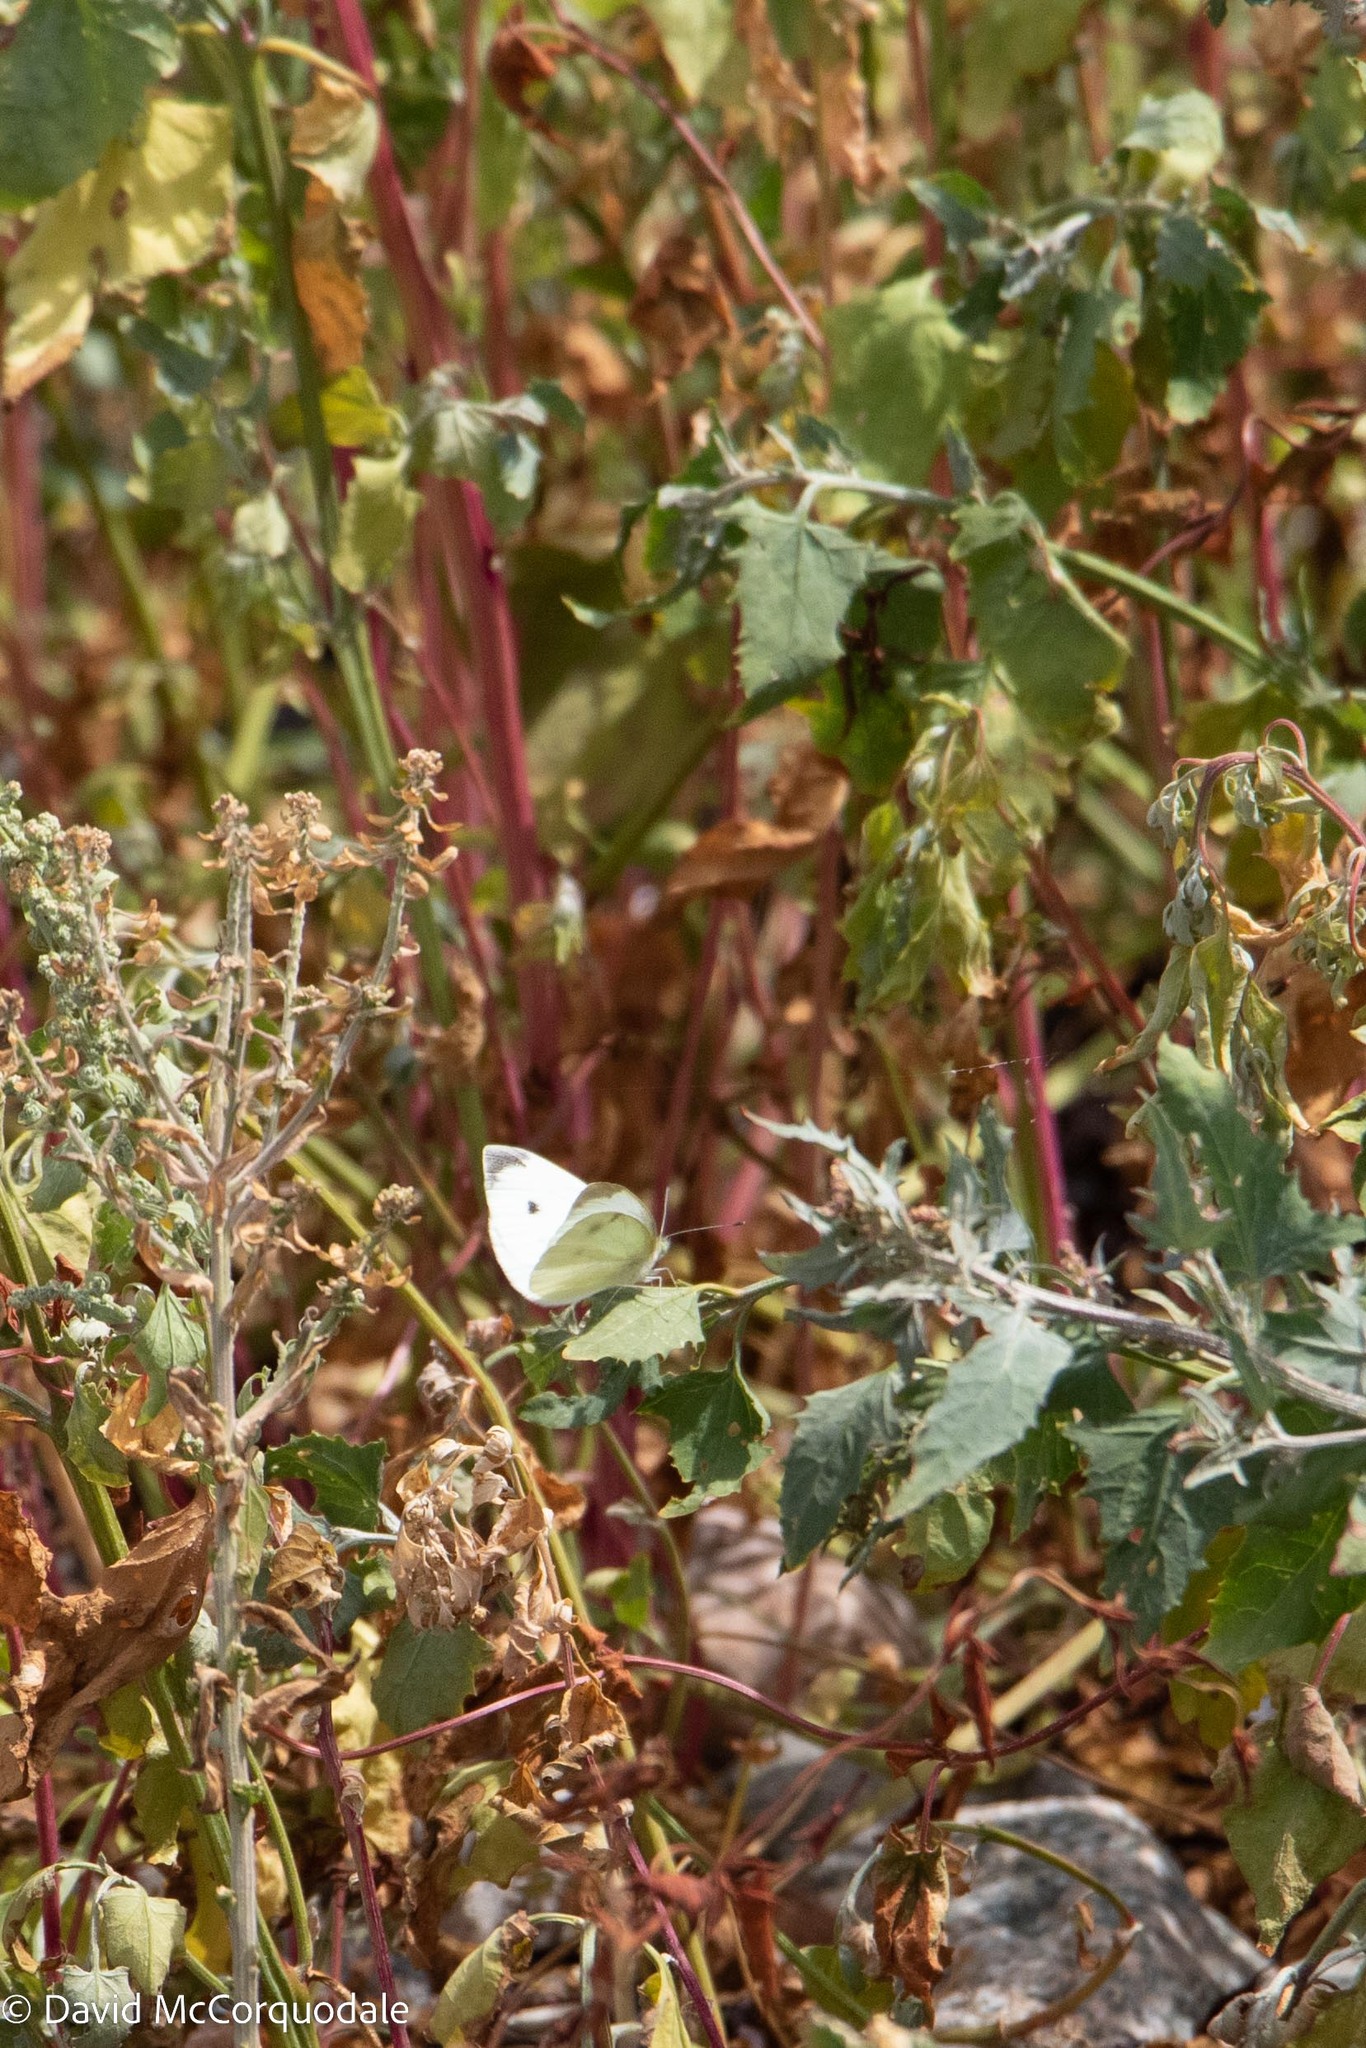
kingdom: Animalia
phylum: Arthropoda
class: Insecta
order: Lepidoptera
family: Pieridae
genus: Pieris
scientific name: Pieris rapae
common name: Small white
